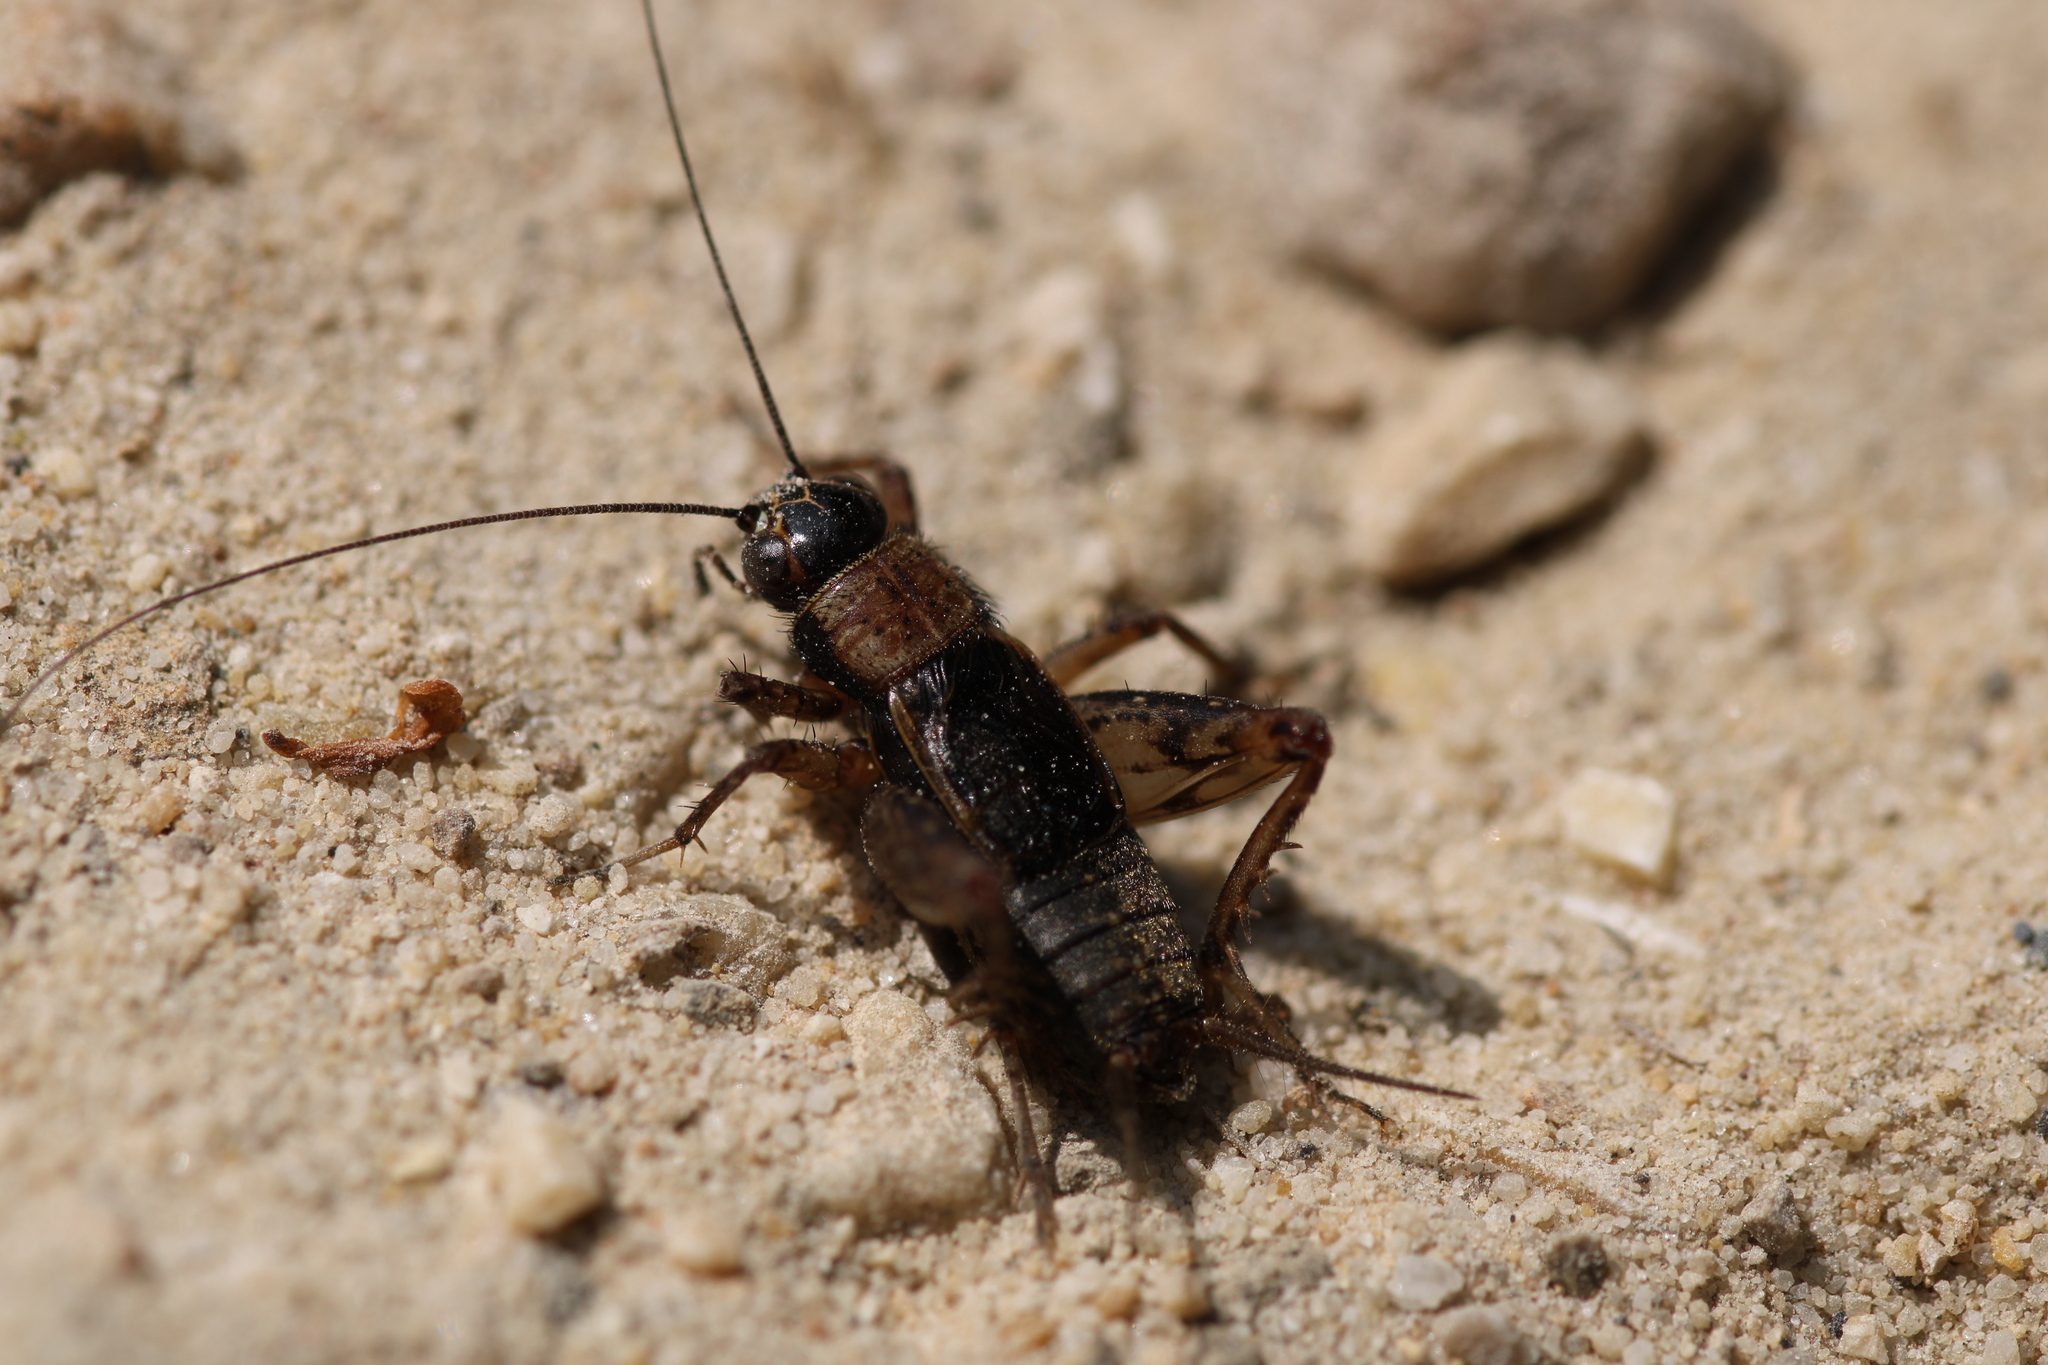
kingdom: Animalia
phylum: Arthropoda
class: Insecta
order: Orthoptera
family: Trigonidiidae
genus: Nemobius
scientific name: Nemobius sylvestris
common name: Wood-cricket
